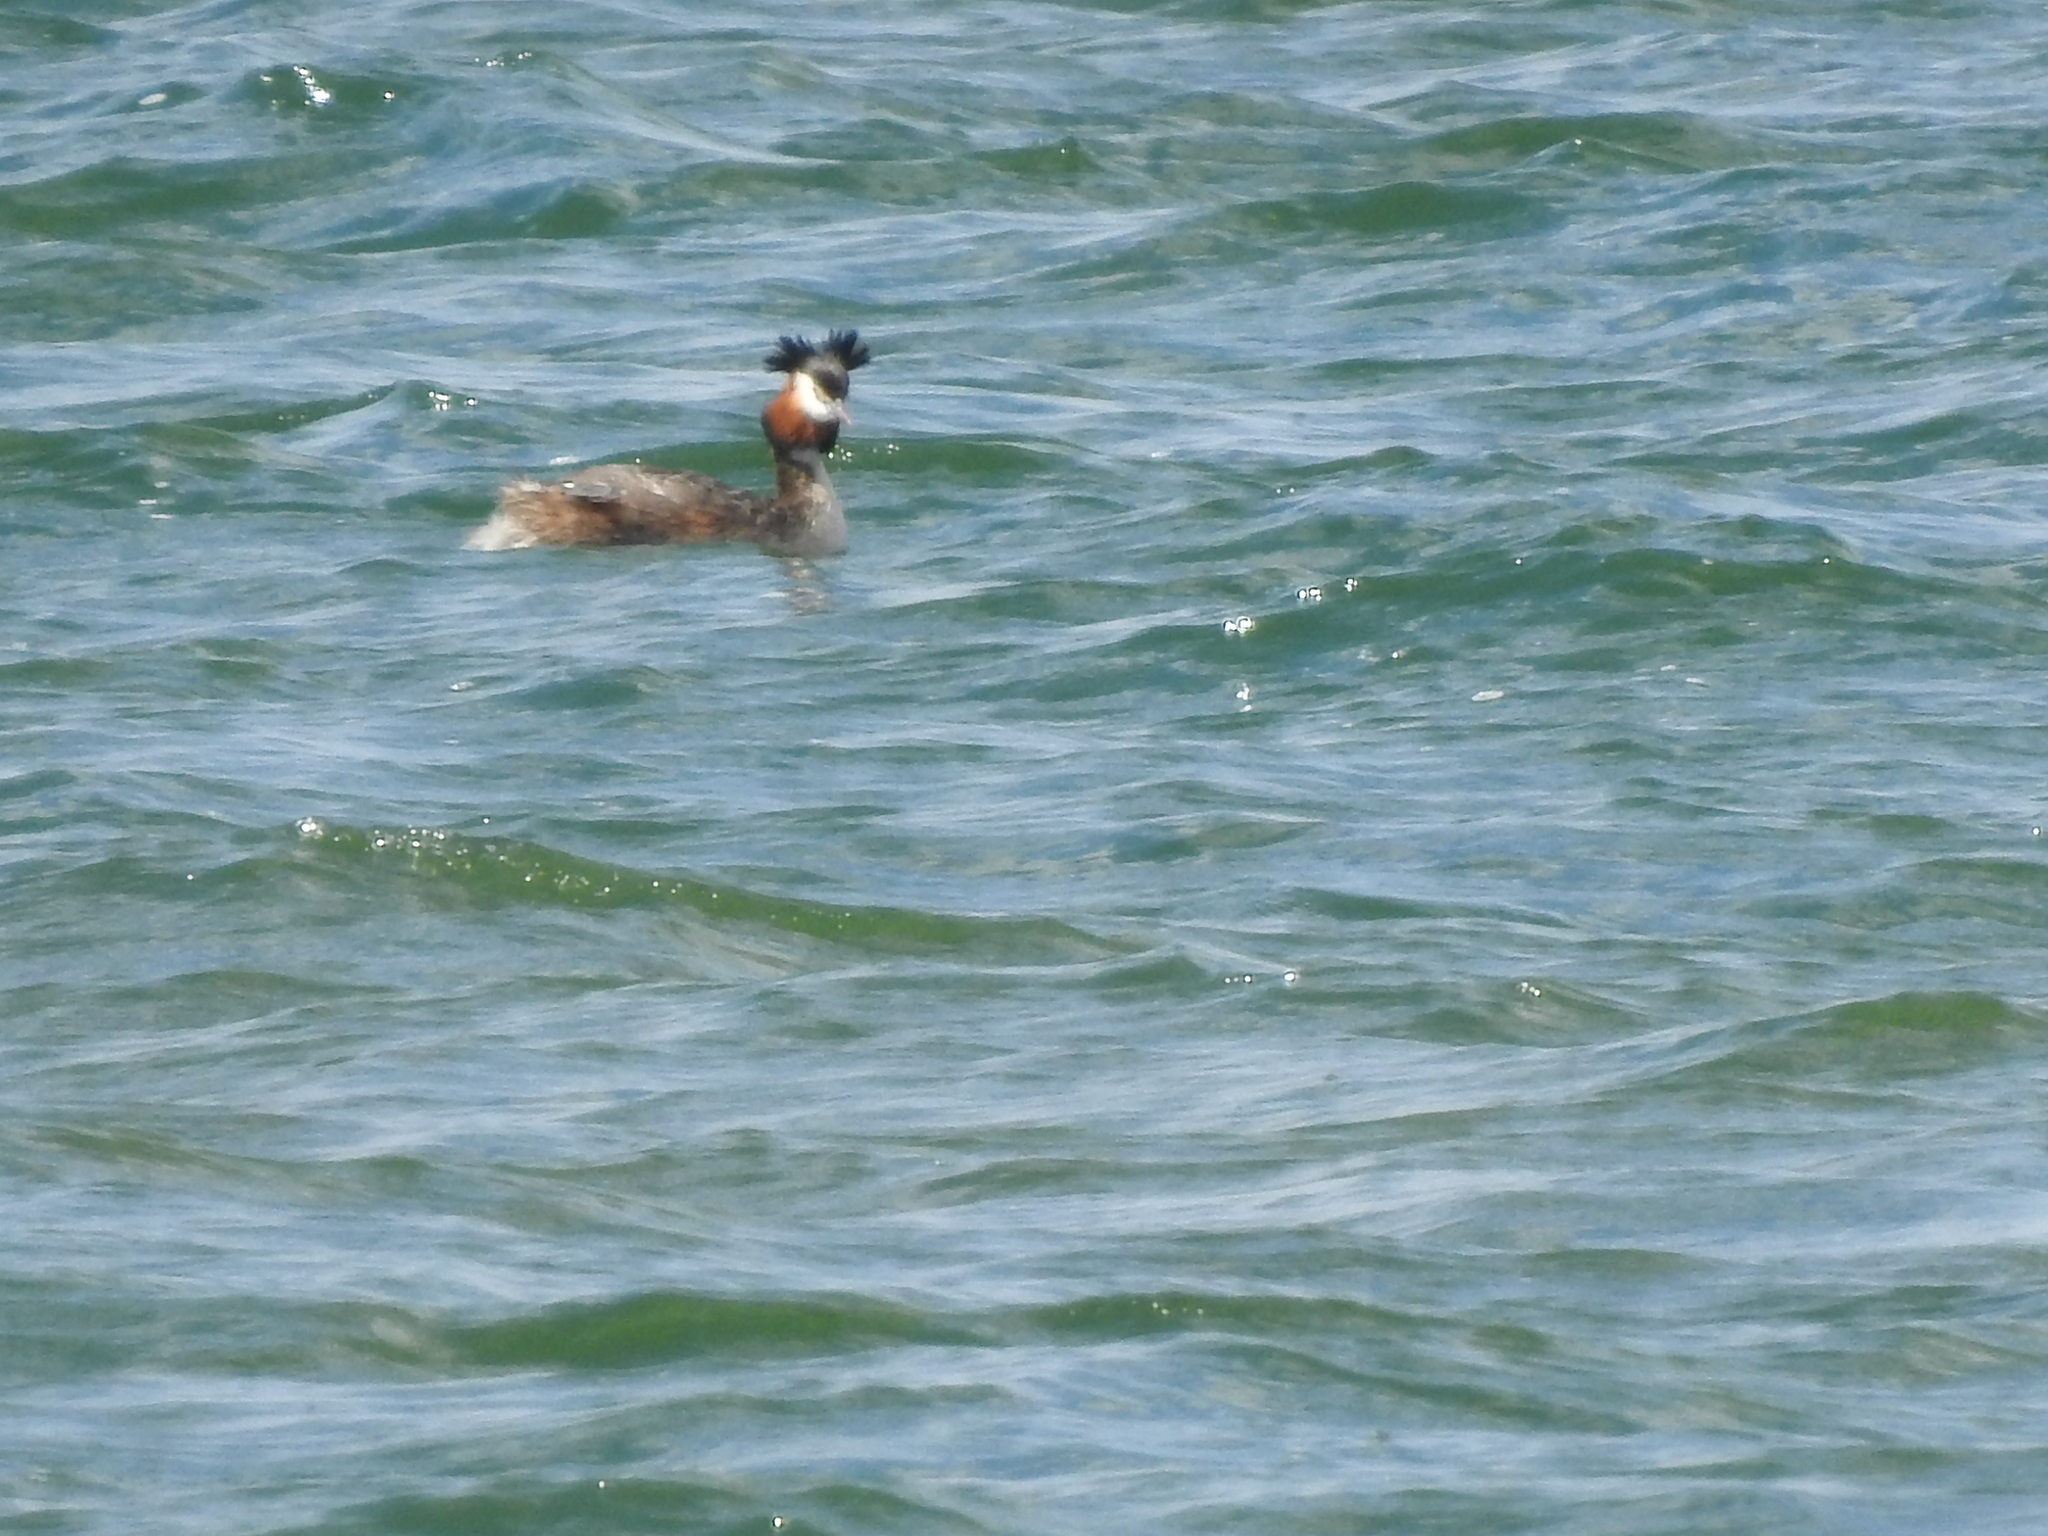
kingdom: Animalia
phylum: Chordata
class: Aves
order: Podicipediformes
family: Podicipedidae
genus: Podiceps
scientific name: Podiceps cristatus
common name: Great crested grebe
